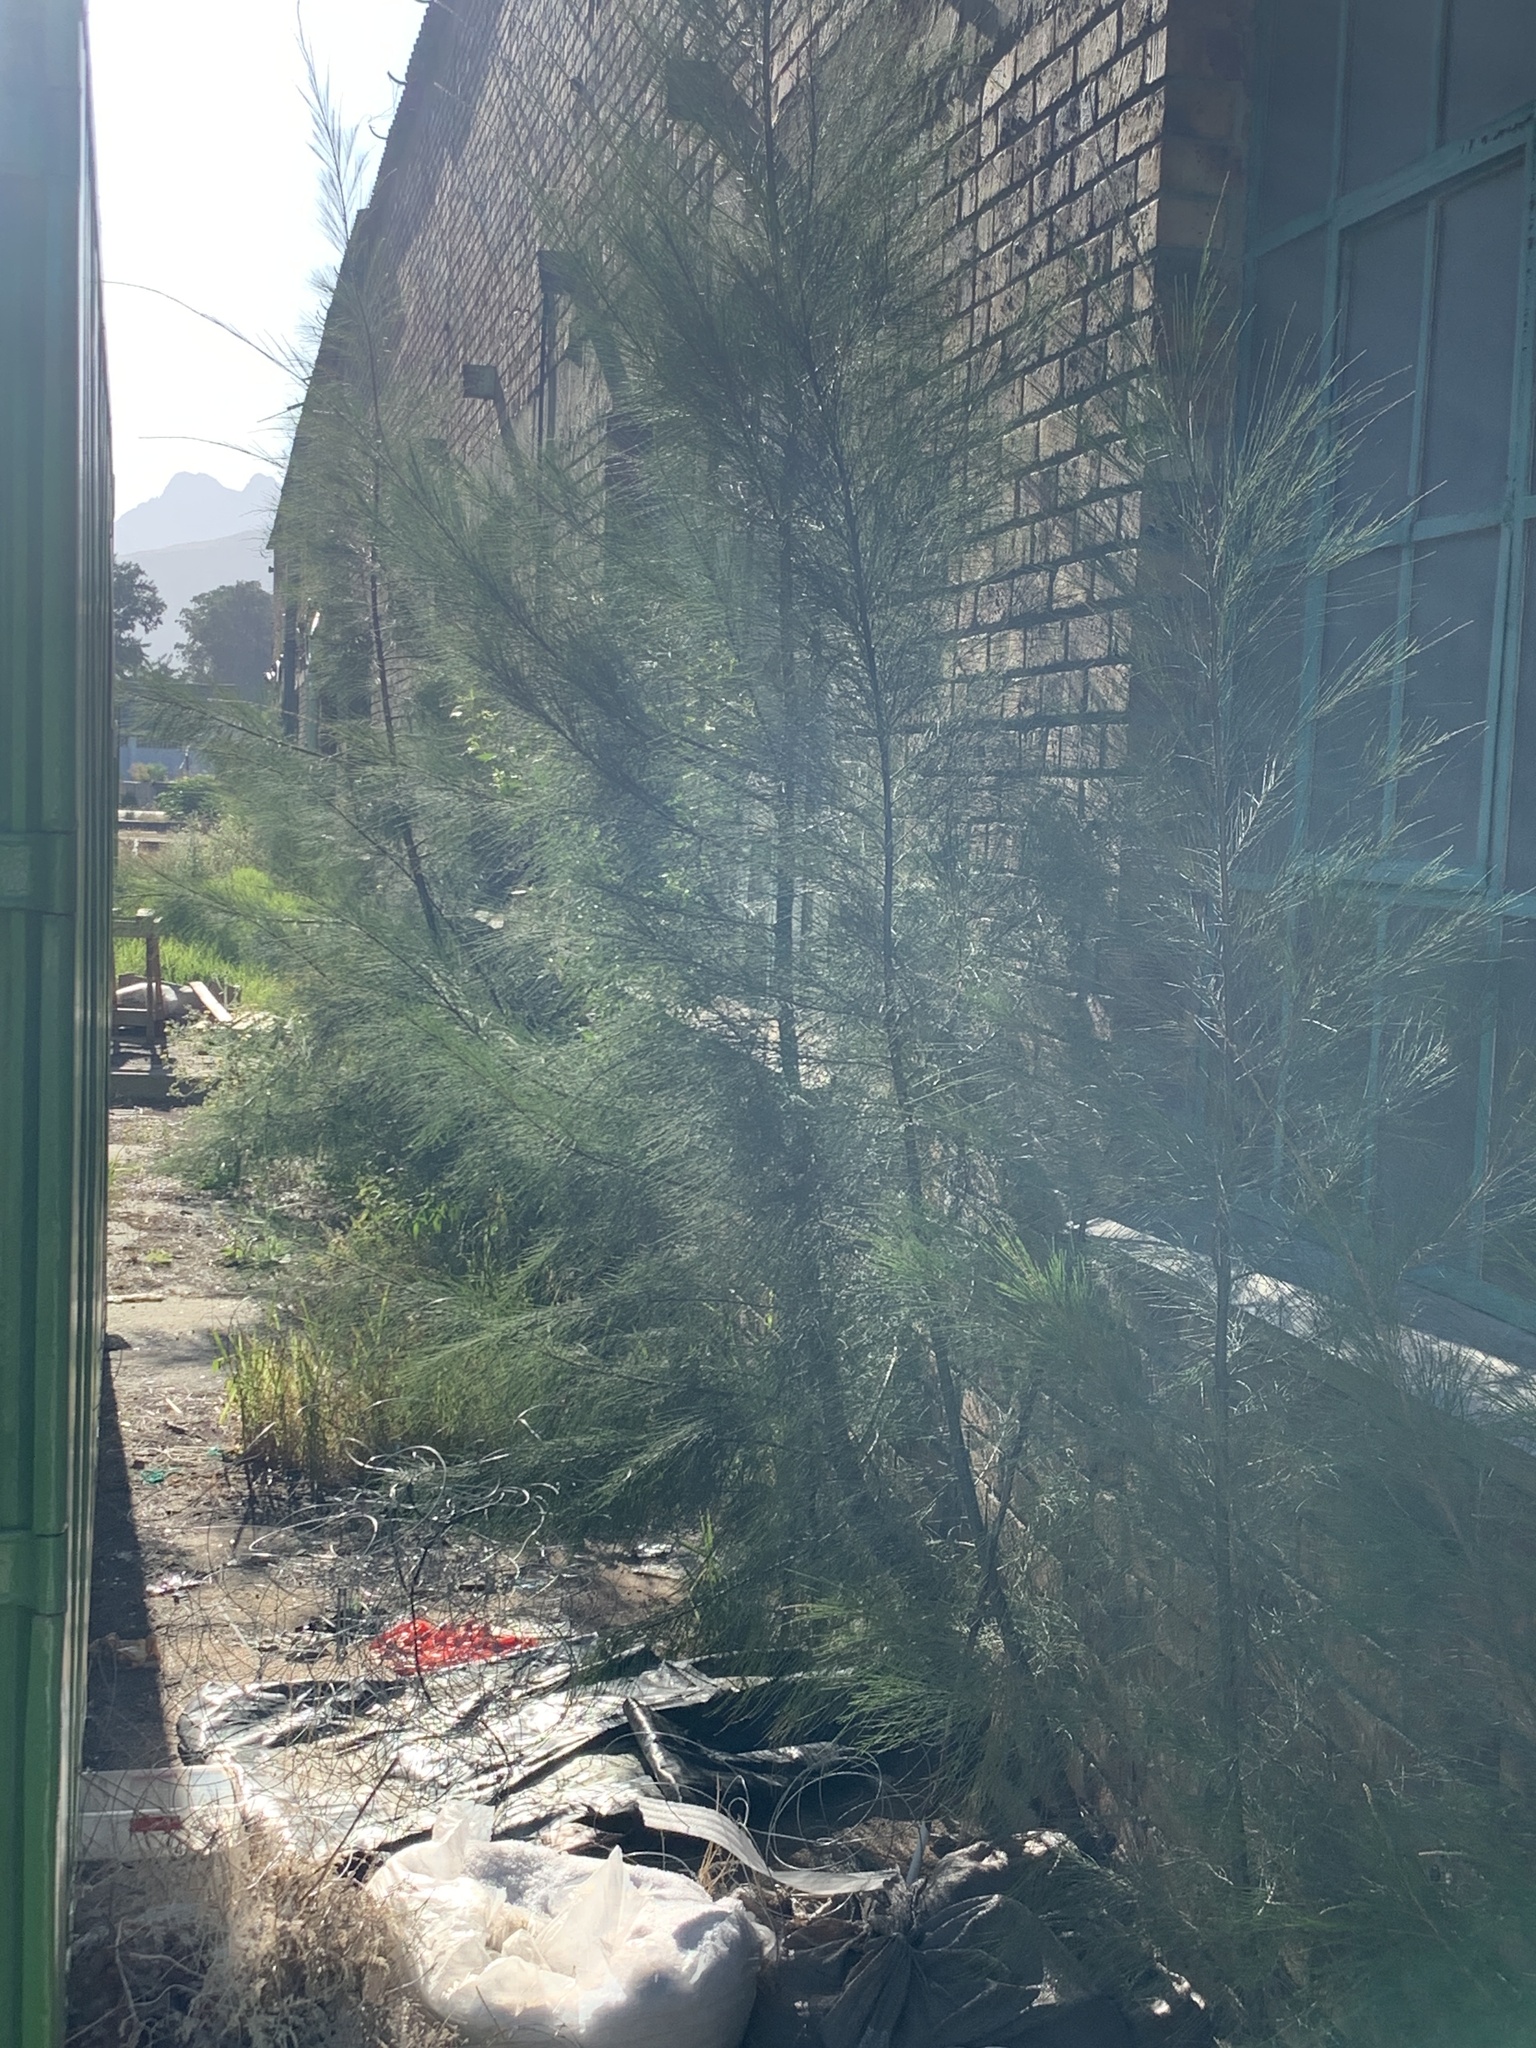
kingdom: Plantae
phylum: Tracheophyta
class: Magnoliopsida
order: Fagales
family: Casuarinaceae
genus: Casuarina
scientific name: Casuarina cunninghamiana
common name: River sheoak
